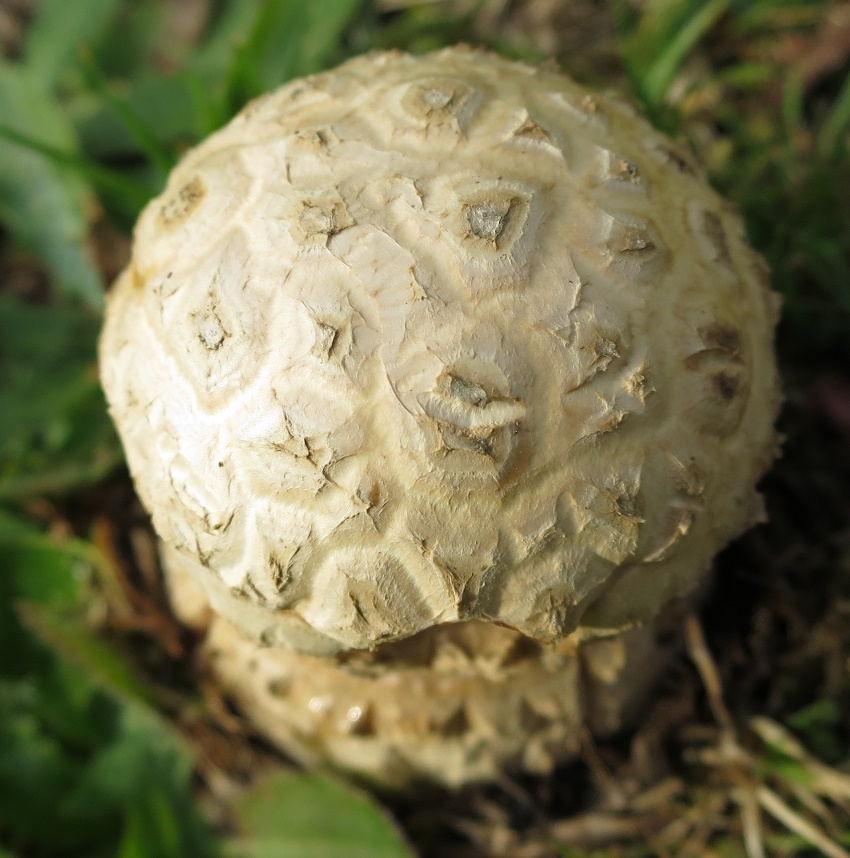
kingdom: Fungi
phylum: Basidiomycota
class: Agaricomycetes
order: Agaricales
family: Amanitaceae
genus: Amanita
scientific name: Amanita muscaria
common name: Fly agaric
